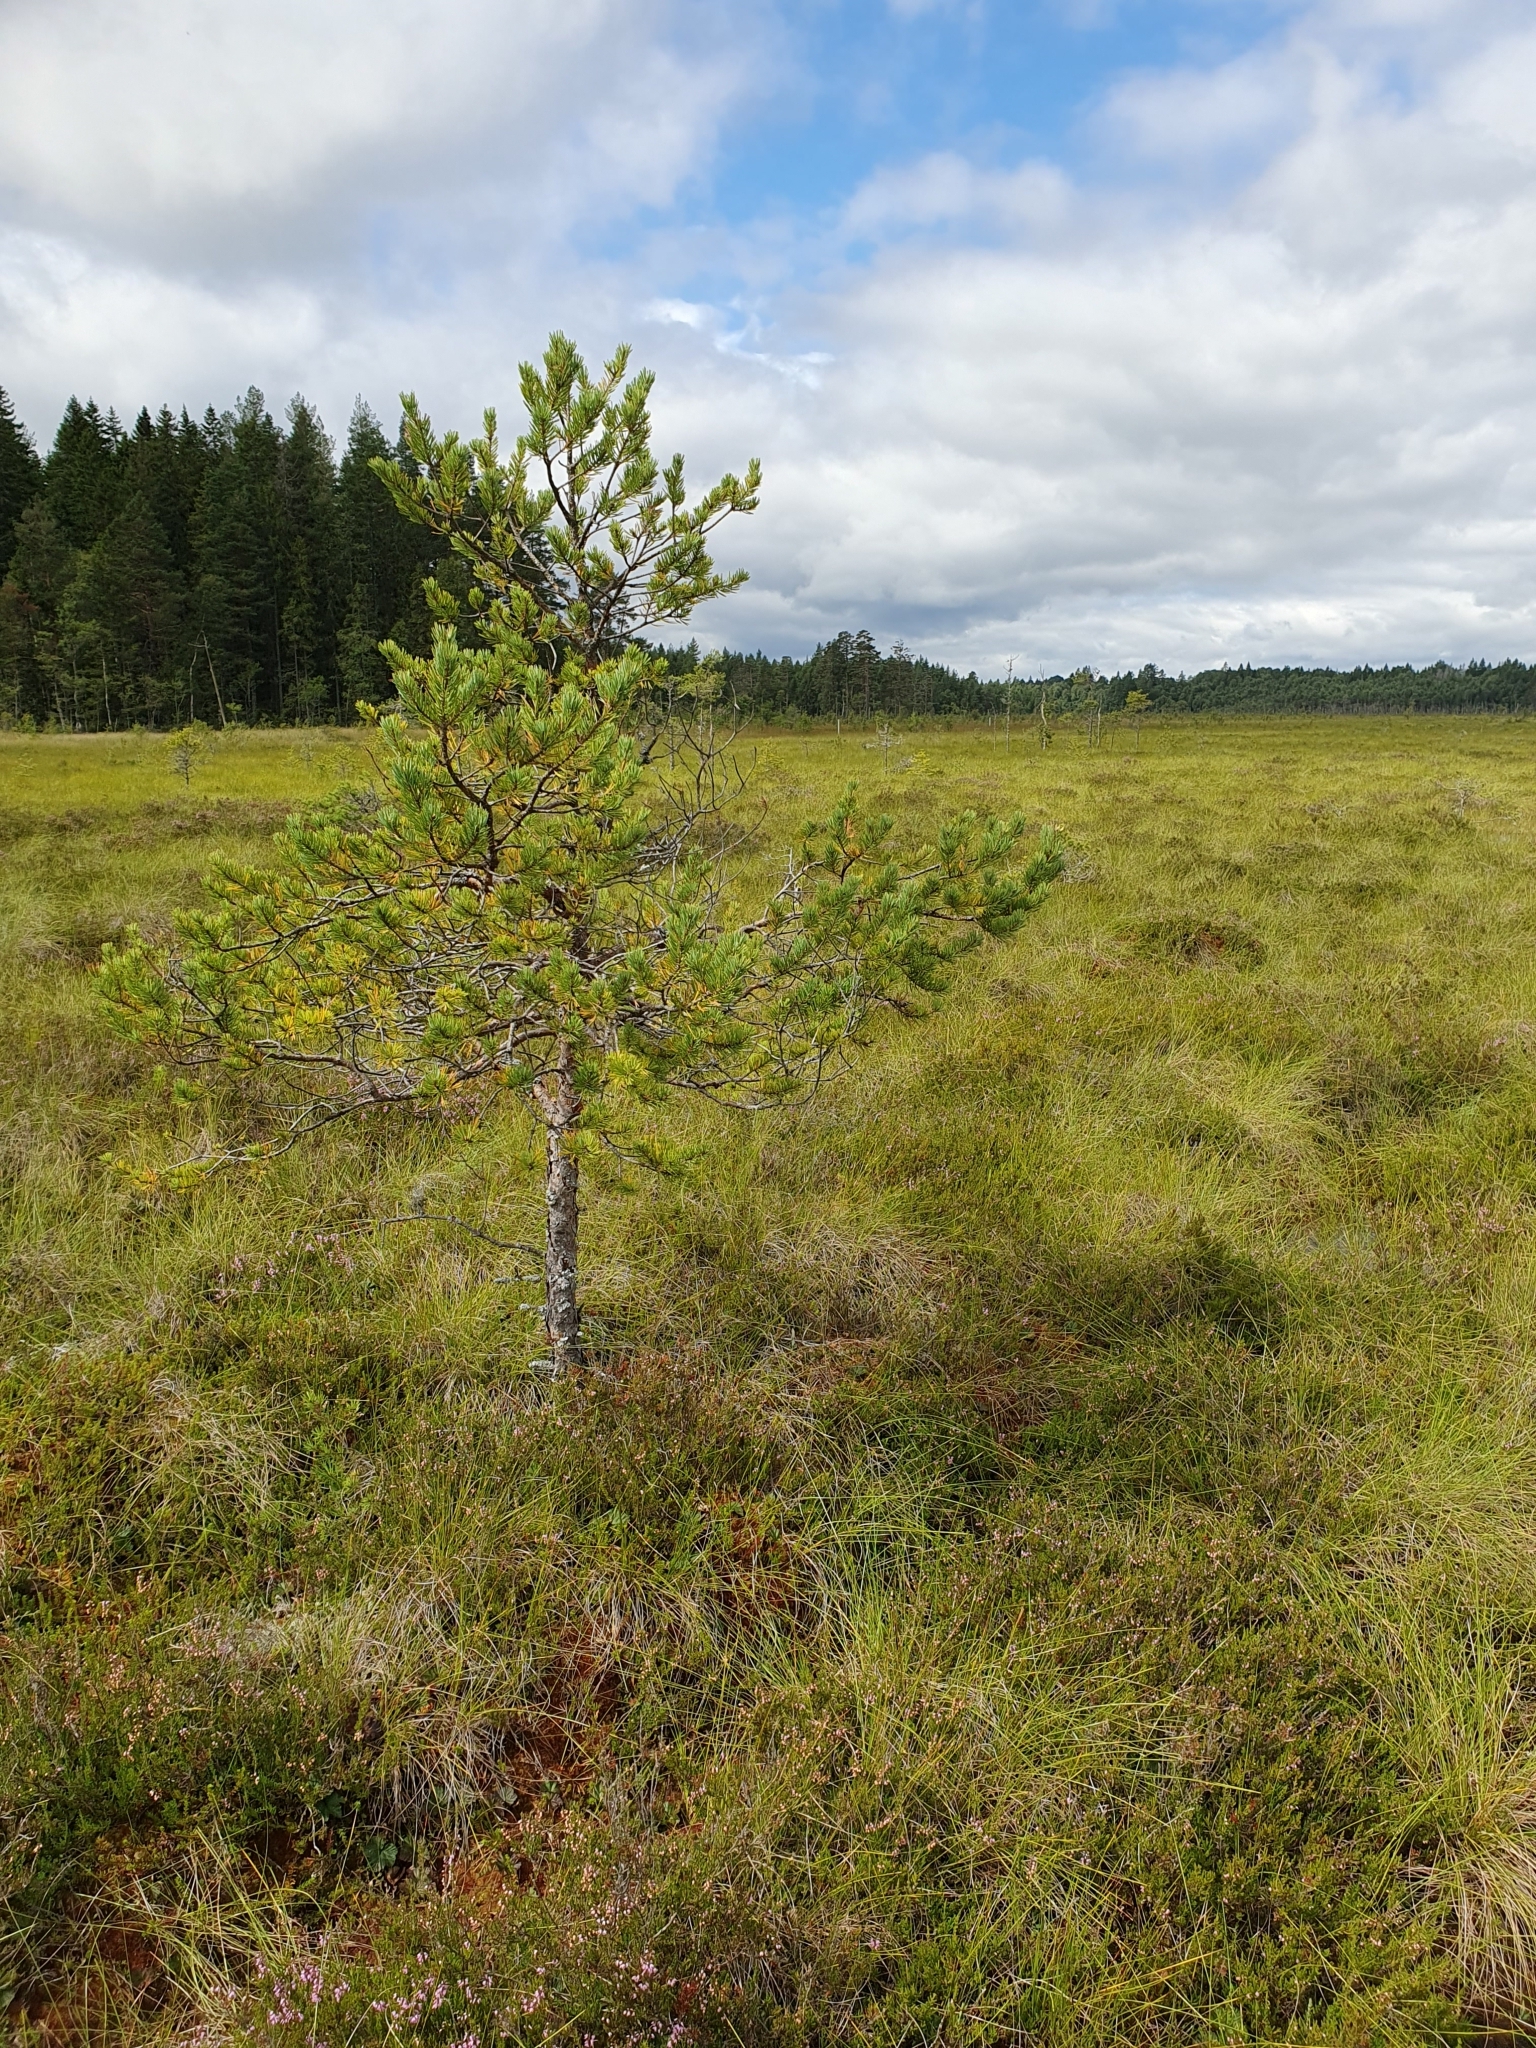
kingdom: Plantae
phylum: Tracheophyta
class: Pinopsida
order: Pinales
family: Pinaceae
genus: Pinus
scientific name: Pinus sylvestris
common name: Scots pine
